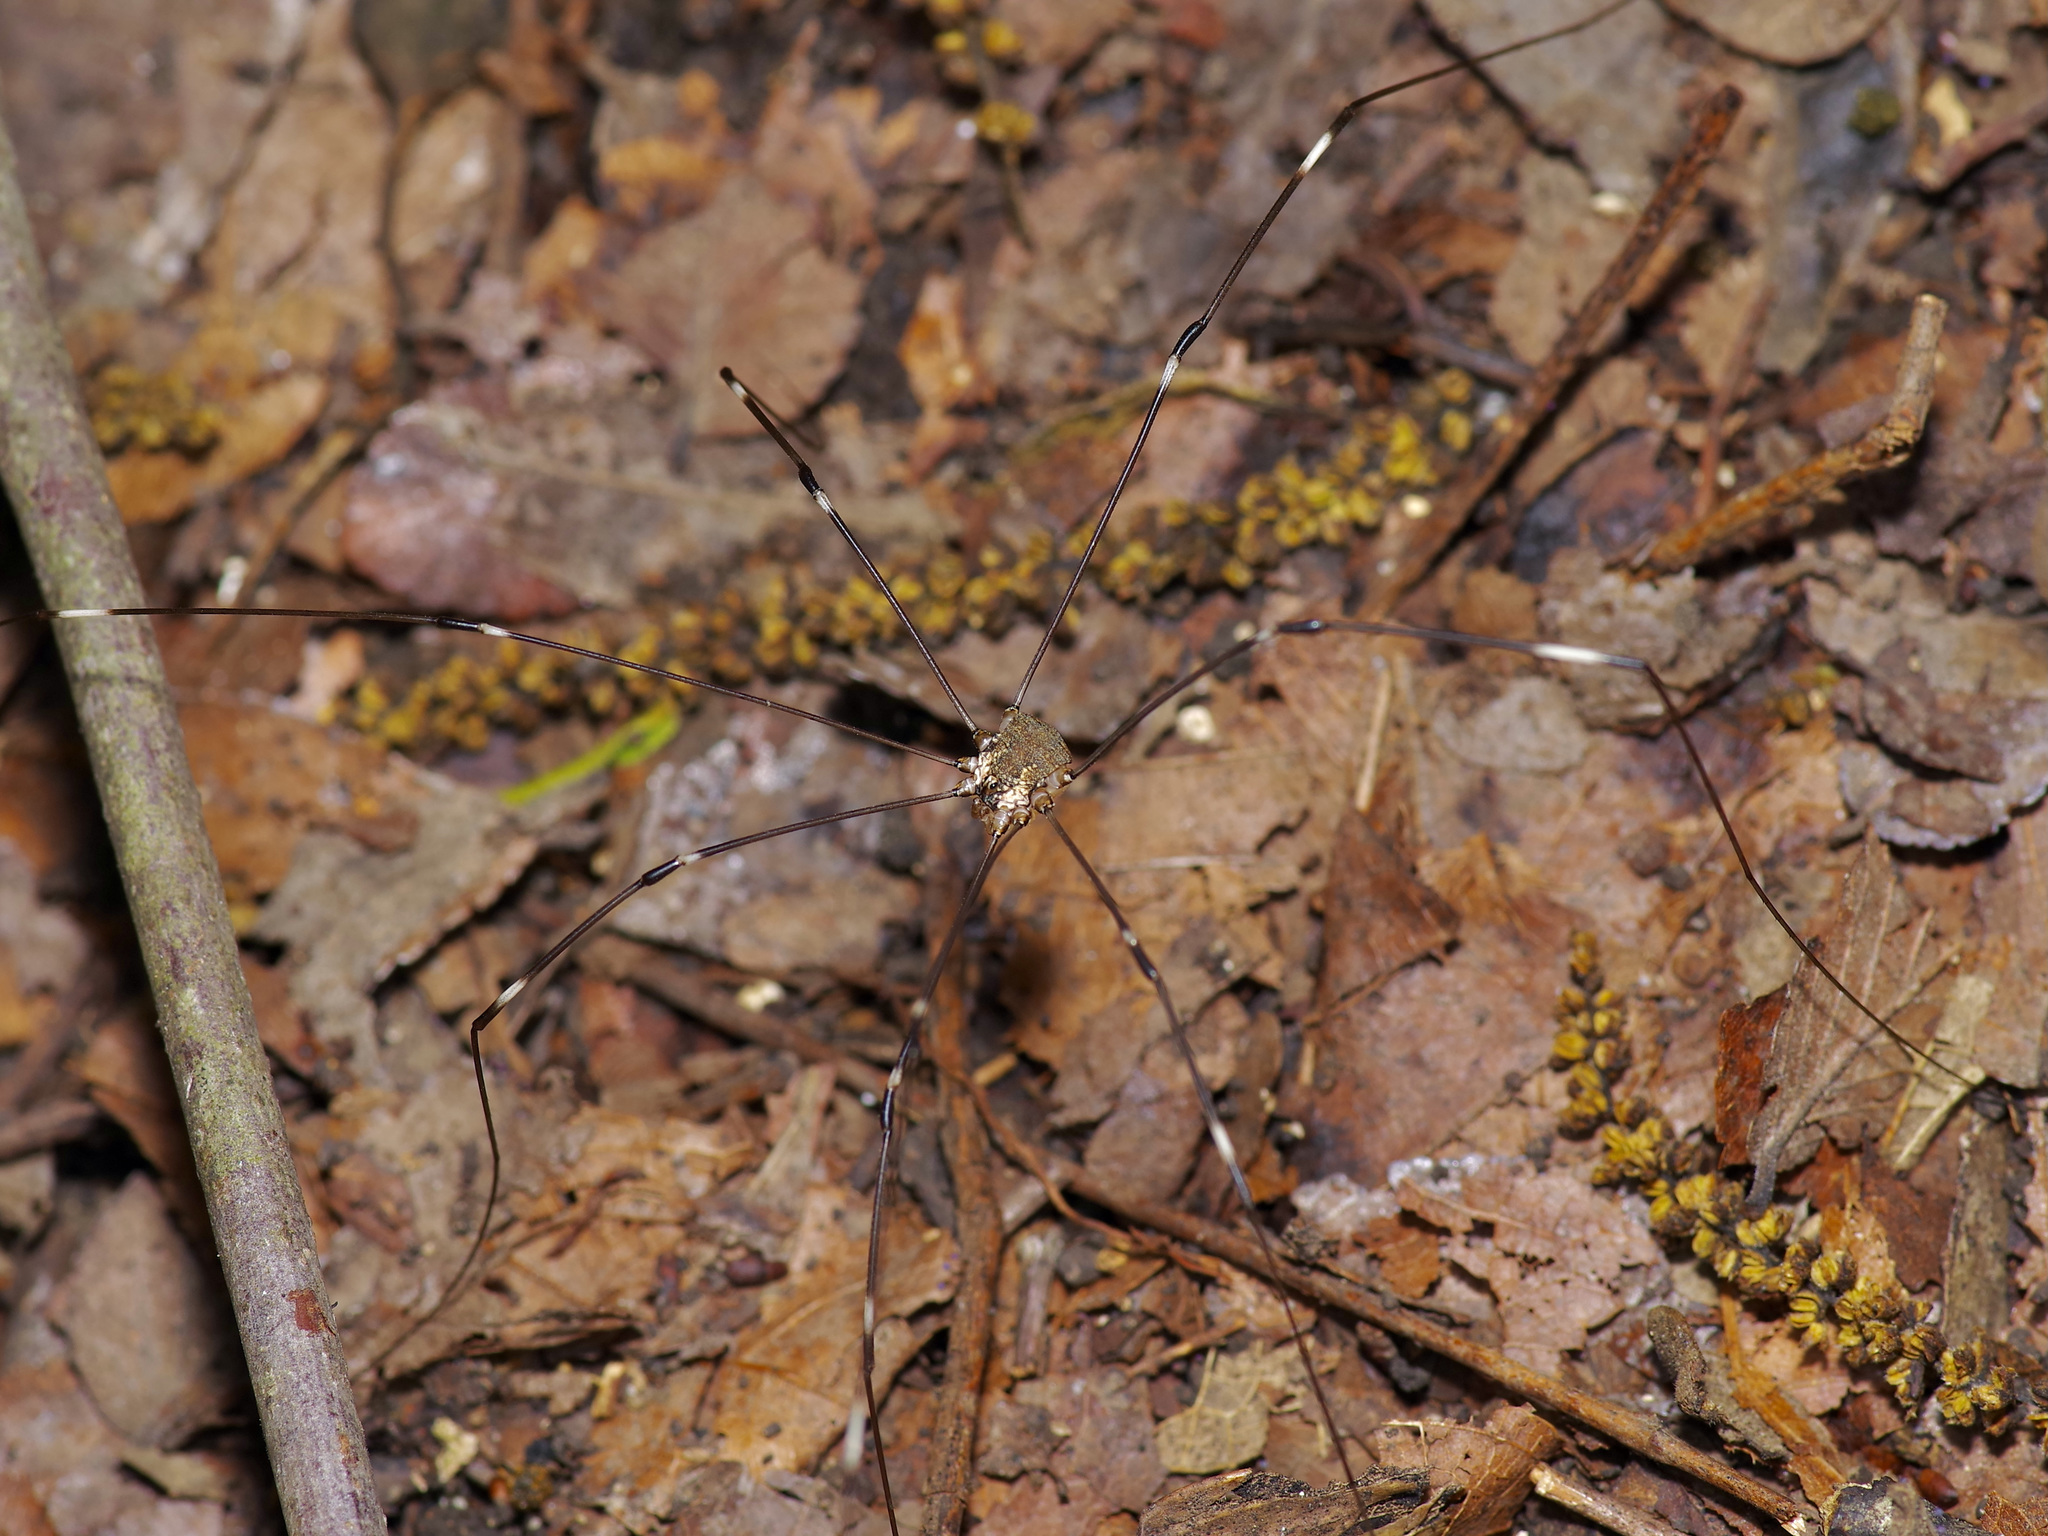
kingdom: Animalia
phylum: Arthropoda
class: Arachnida
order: Opiliones
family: Sclerosomatidae
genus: Leiobunum
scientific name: Leiobunum townsendi
